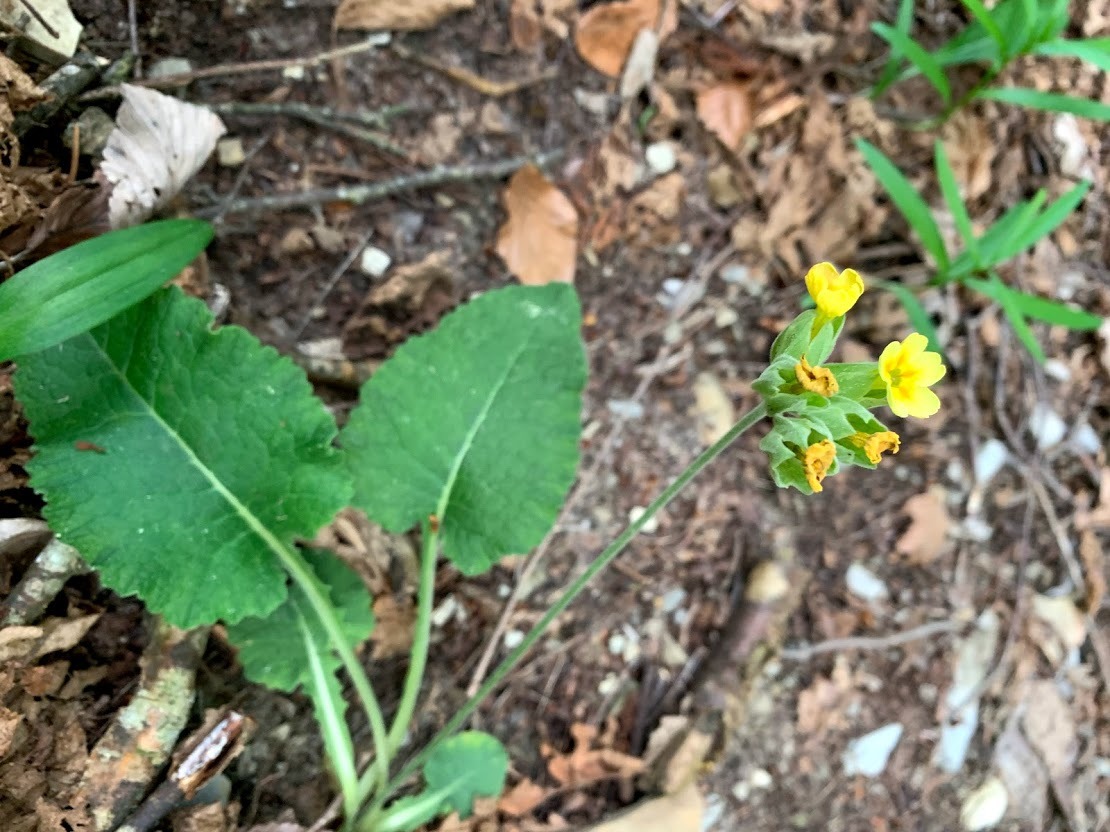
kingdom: Plantae
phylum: Tracheophyta
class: Magnoliopsida
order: Ericales
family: Primulaceae
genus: Primula
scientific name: Primula veris
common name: Cowslip
